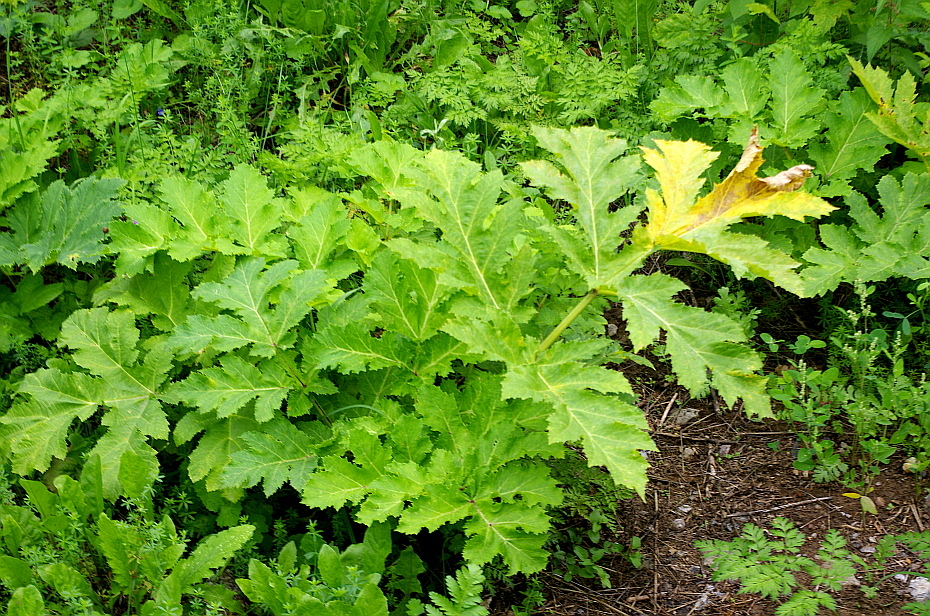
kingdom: Plantae
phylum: Tracheophyta
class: Magnoliopsida
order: Apiales
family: Apiaceae
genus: Heracleum
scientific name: Heracleum sosnowskyi
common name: Sosnowsky's hogweed
